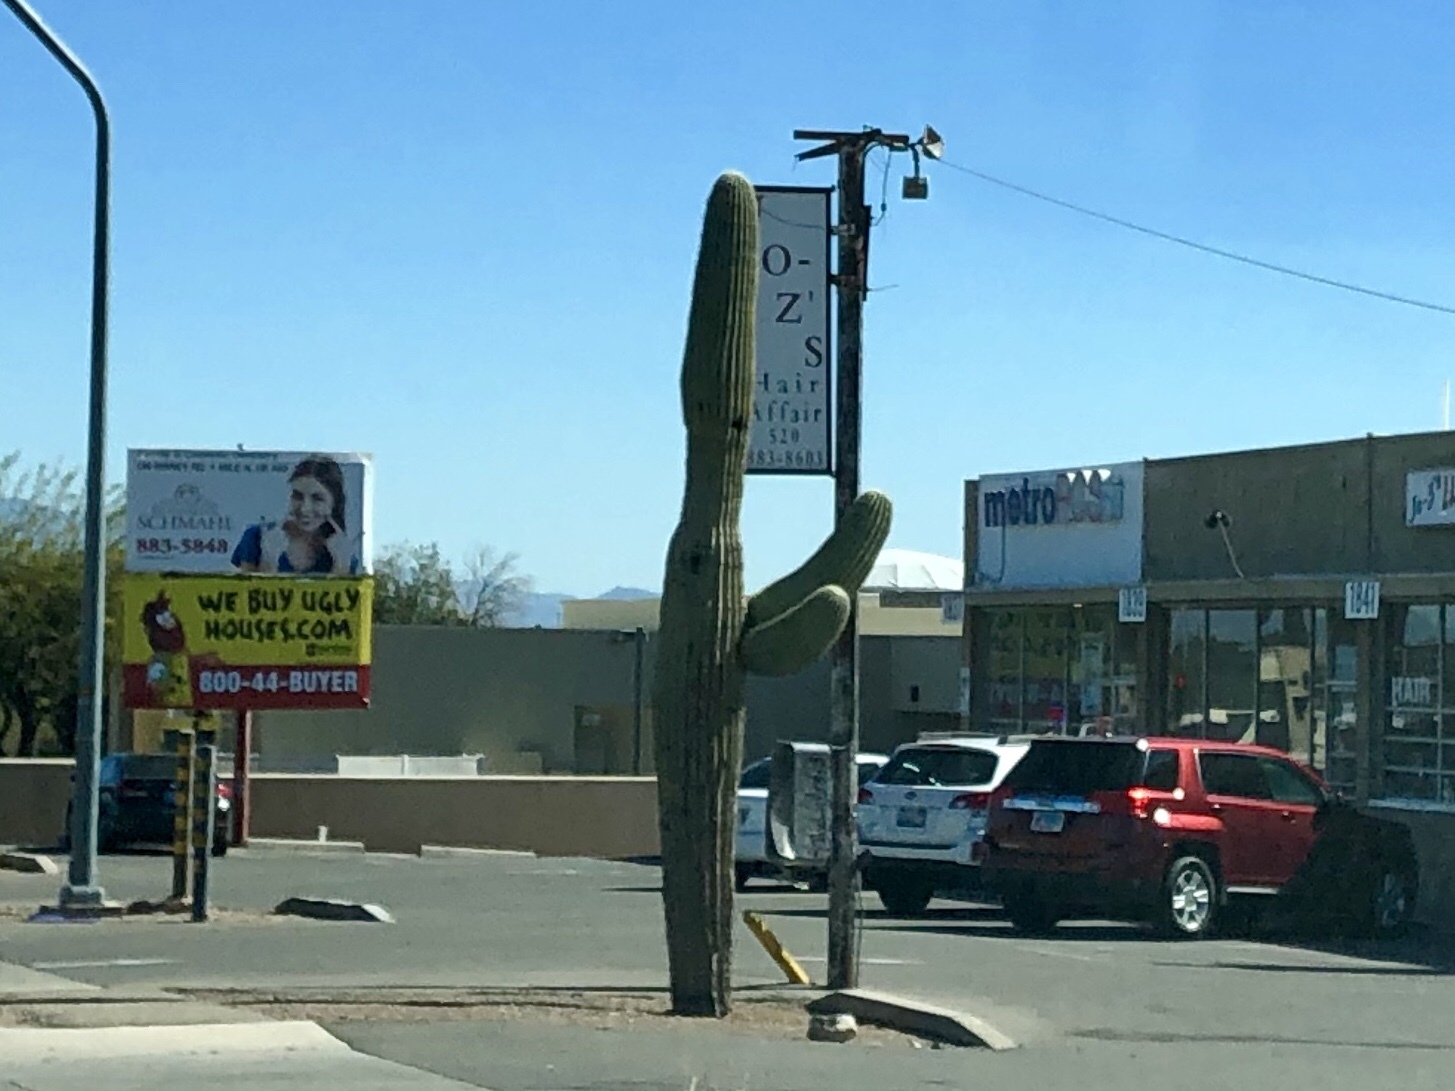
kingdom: Plantae
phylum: Tracheophyta
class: Magnoliopsida
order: Caryophyllales
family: Cactaceae
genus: Carnegiea
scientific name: Carnegiea gigantea
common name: Saguaro
